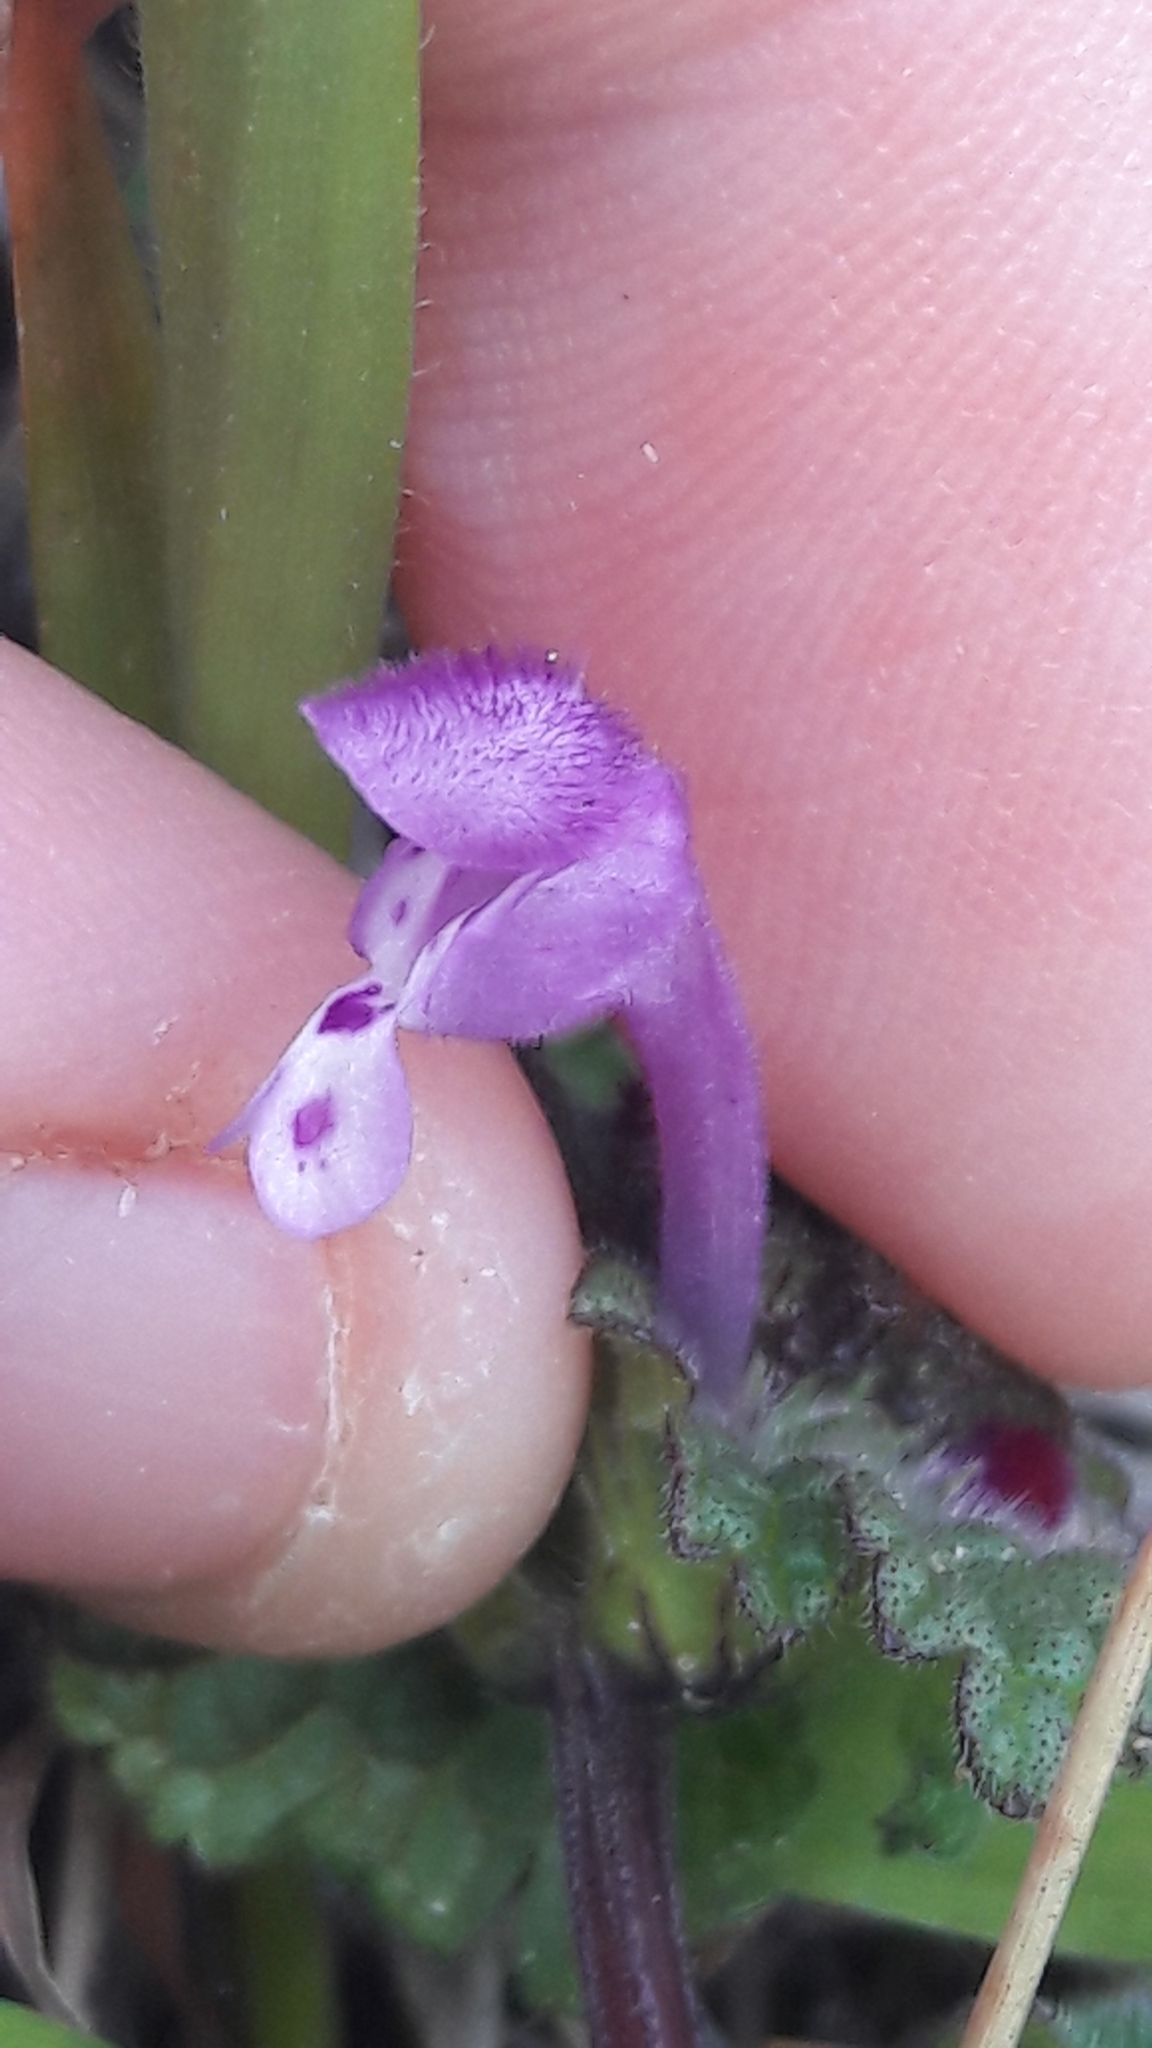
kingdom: Plantae
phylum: Tracheophyta
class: Magnoliopsida
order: Lamiales
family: Lamiaceae
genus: Lamium
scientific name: Lamium amplexicaule
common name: Henbit dead-nettle
